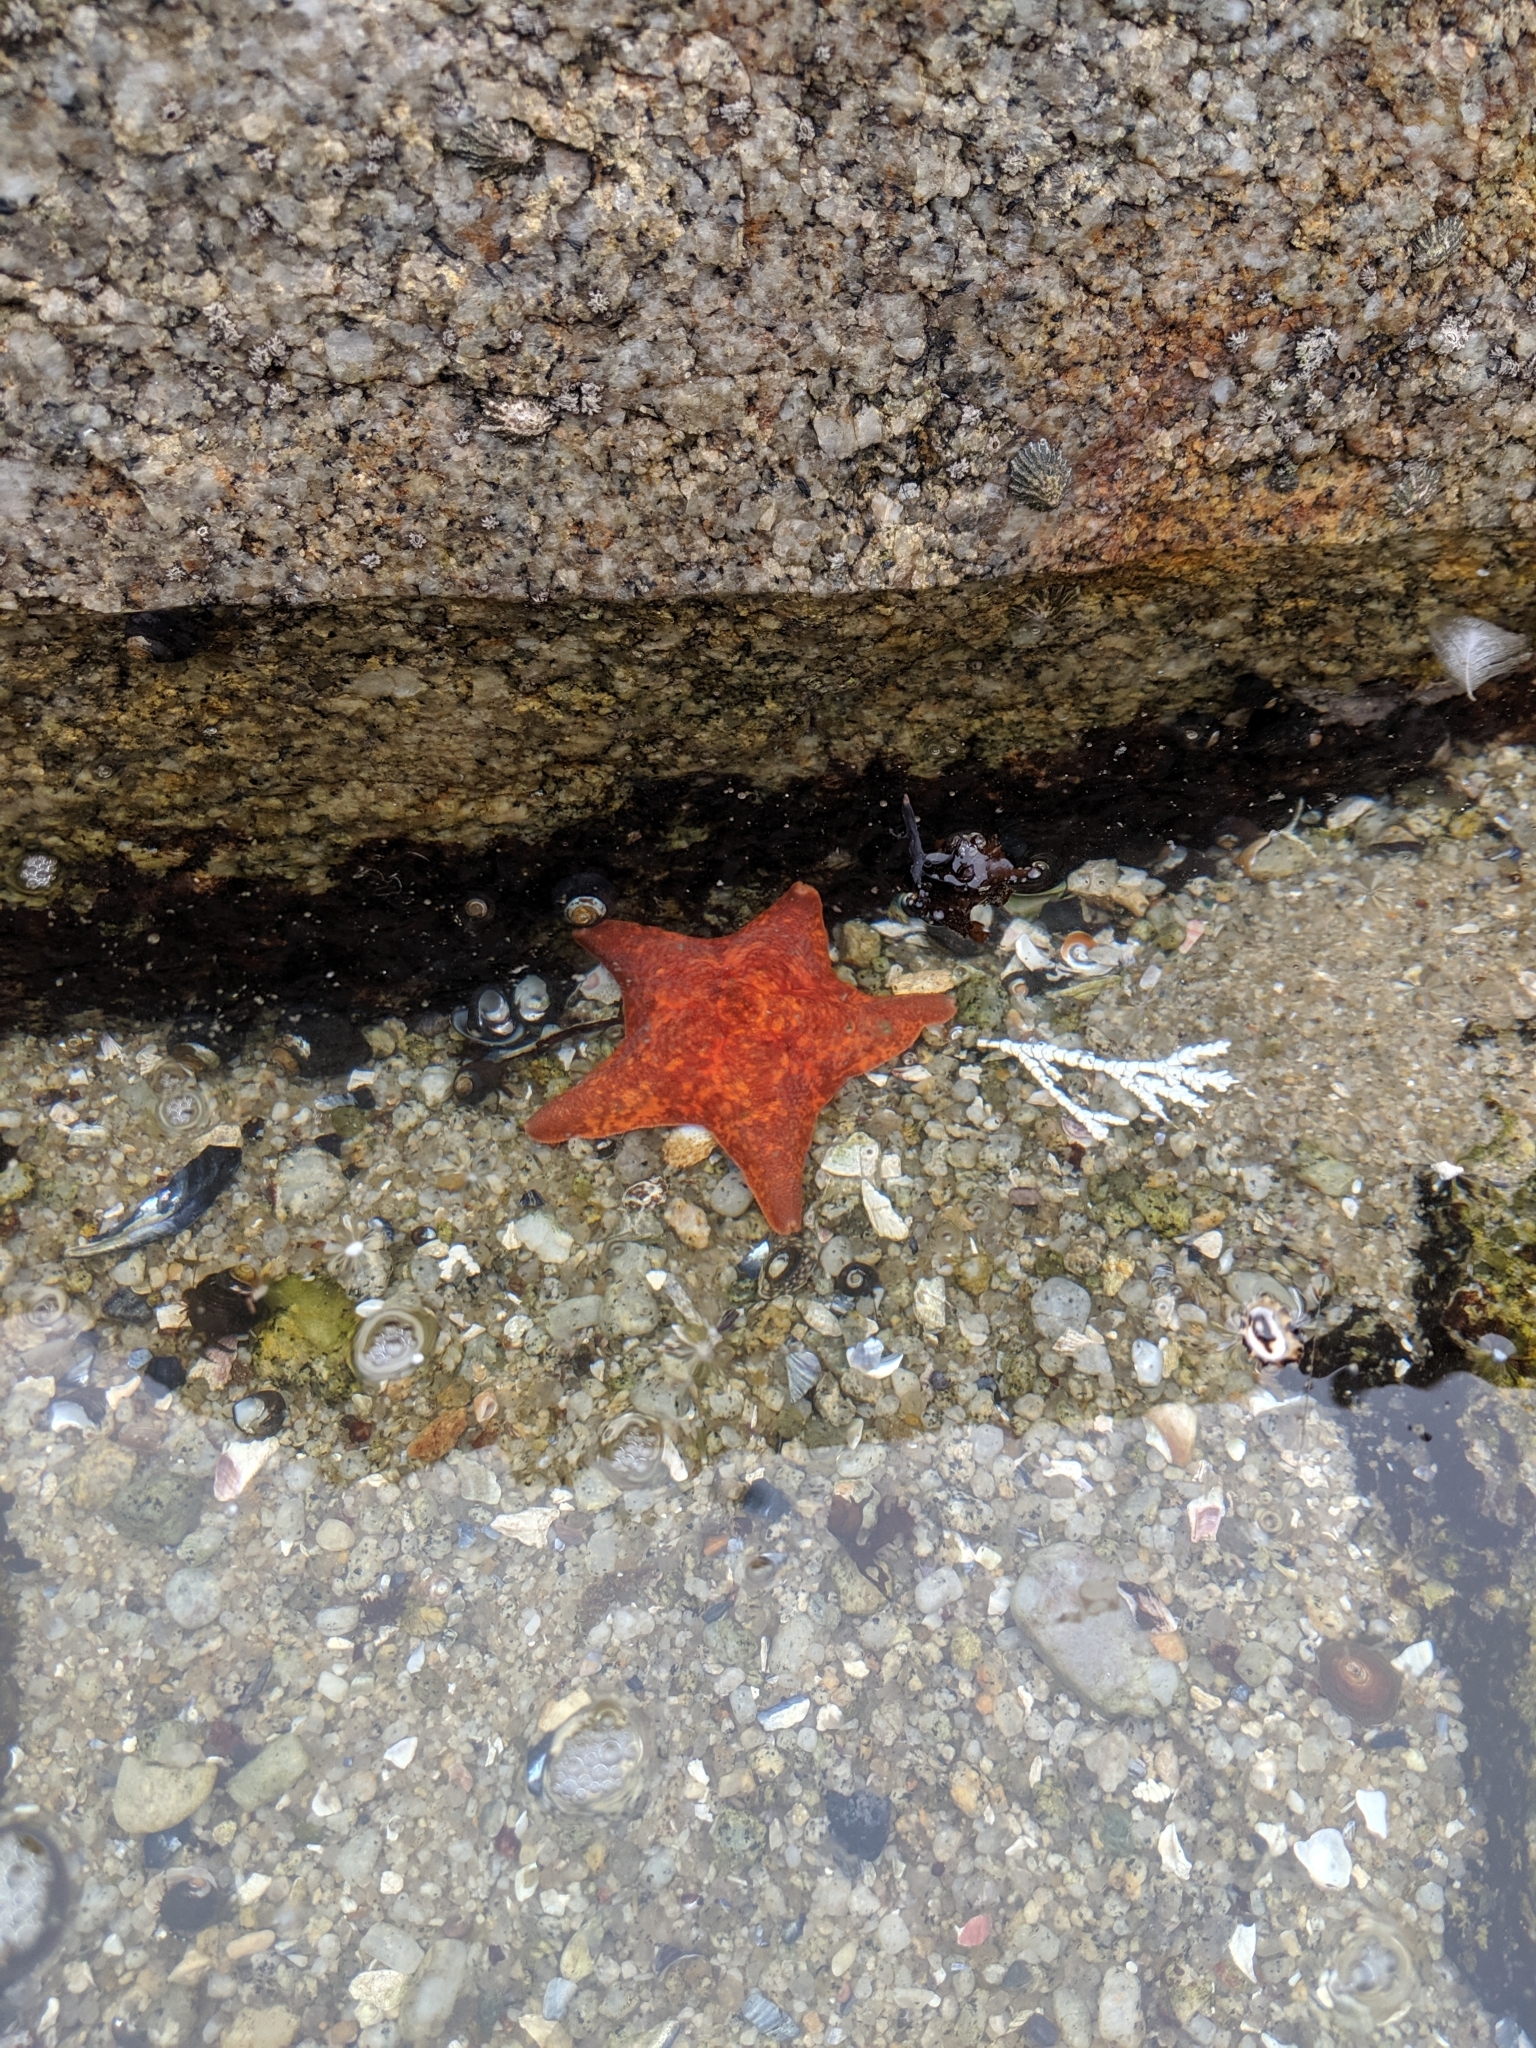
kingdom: Animalia
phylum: Echinodermata
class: Asteroidea
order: Valvatida
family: Asterinidae
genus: Patiria
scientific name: Patiria miniata
